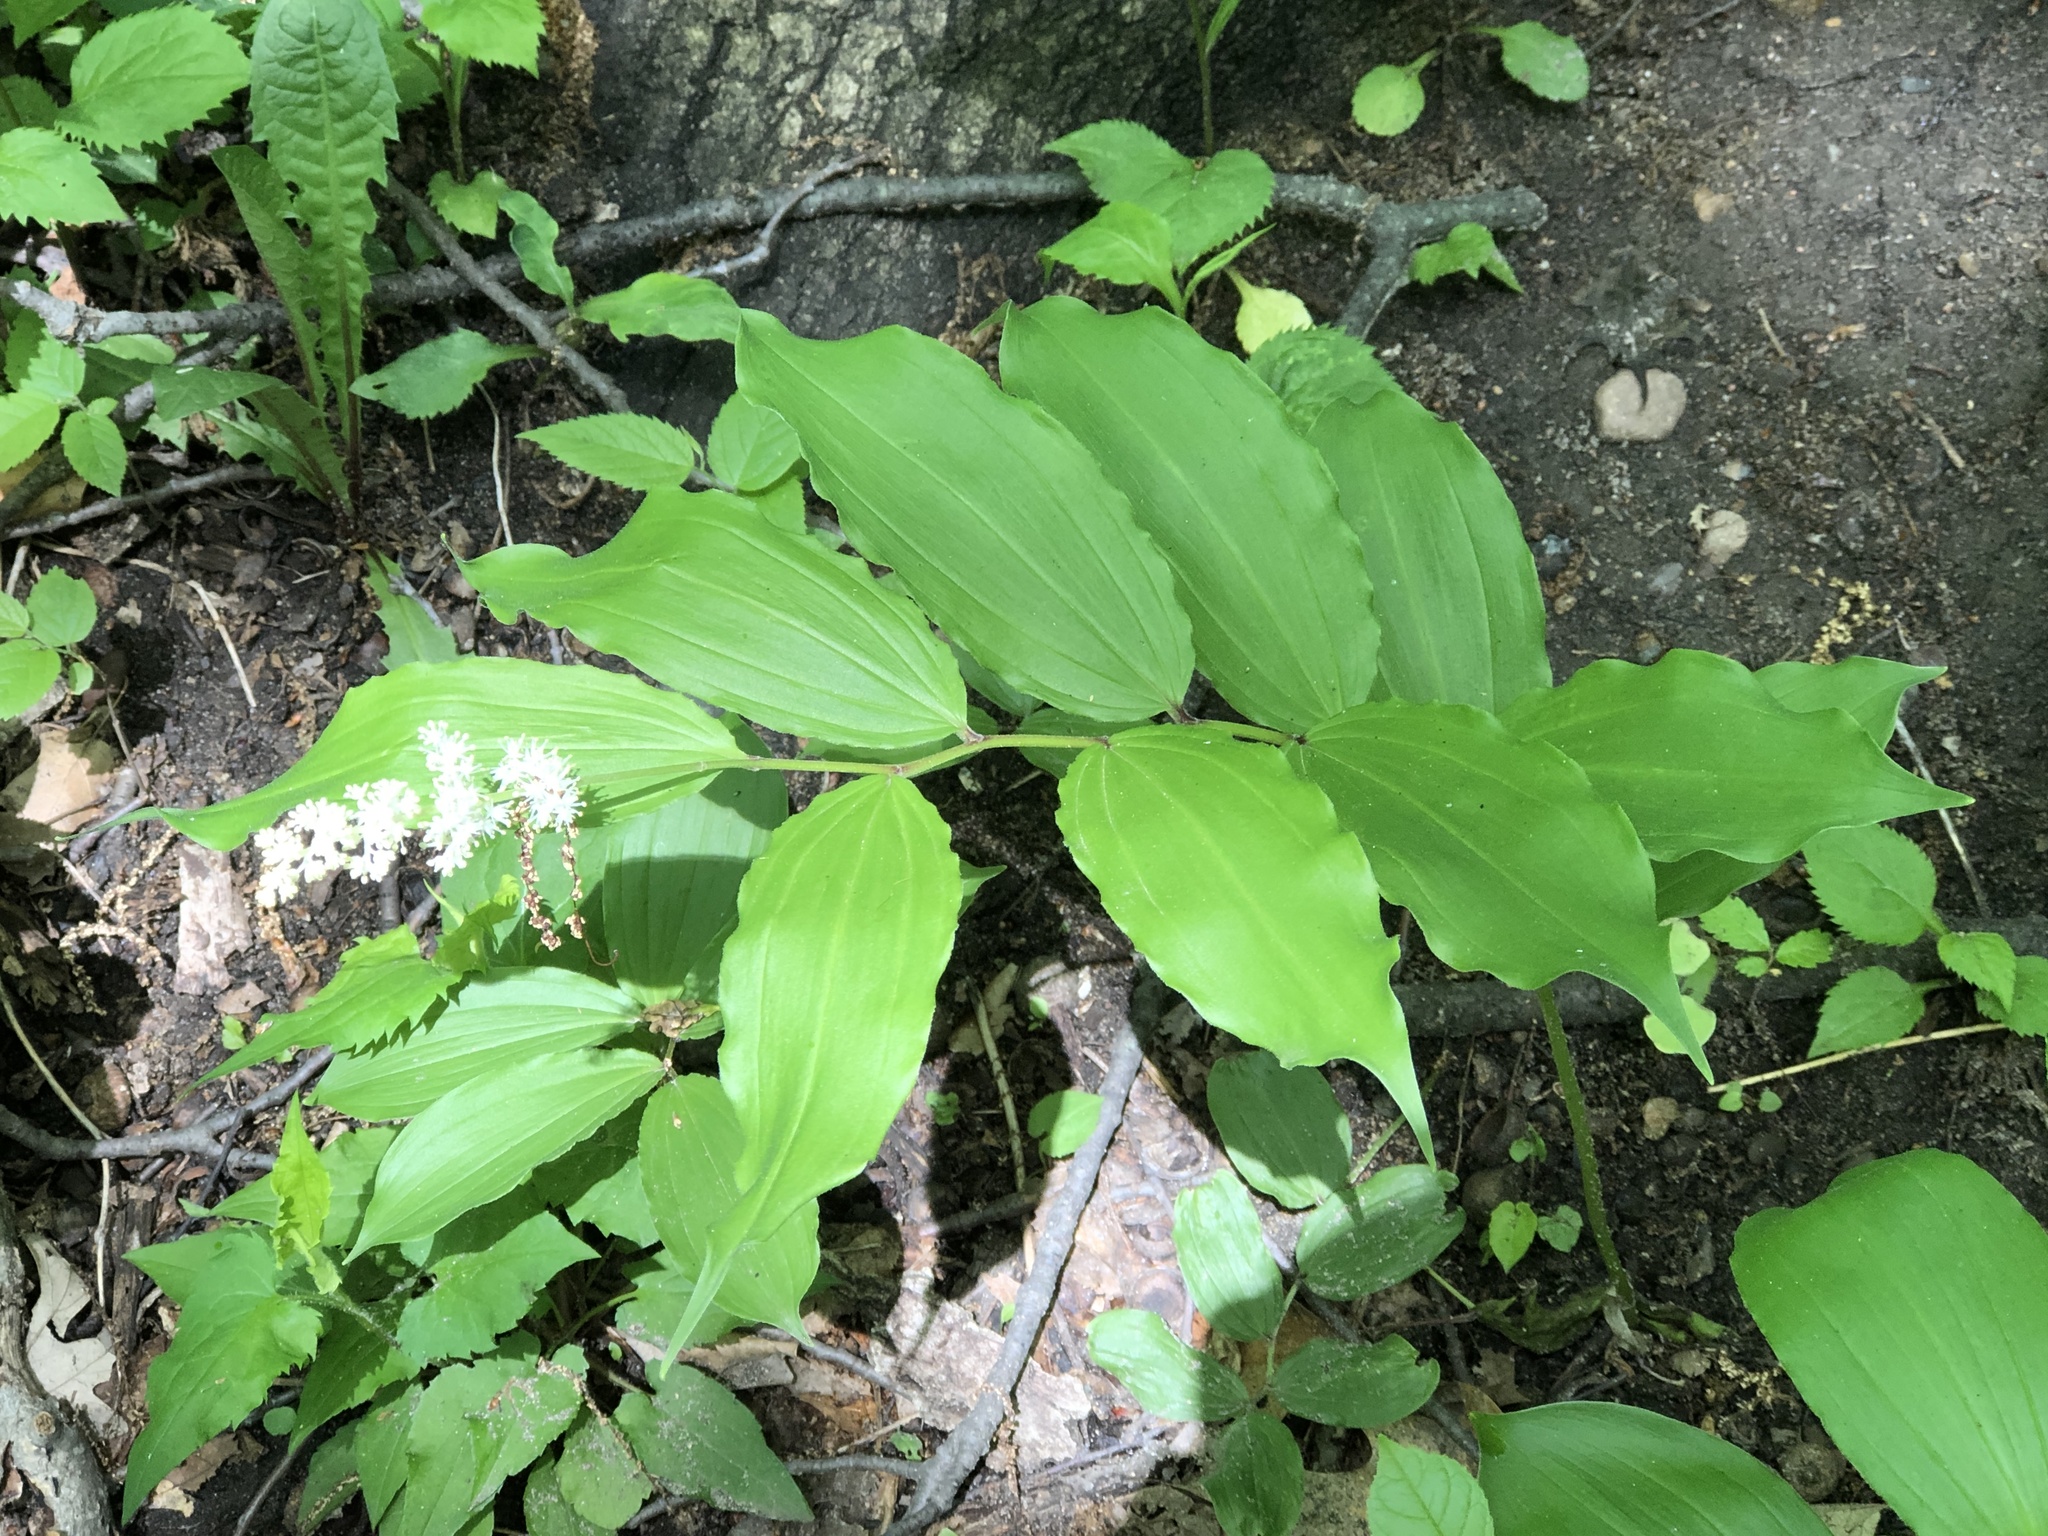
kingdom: Plantae
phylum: Tracheophyta
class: Liliopsida
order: Asparagales
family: Asparagaceae
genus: Maianthemum
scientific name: Maianthemum racemosum
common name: False spikenard
